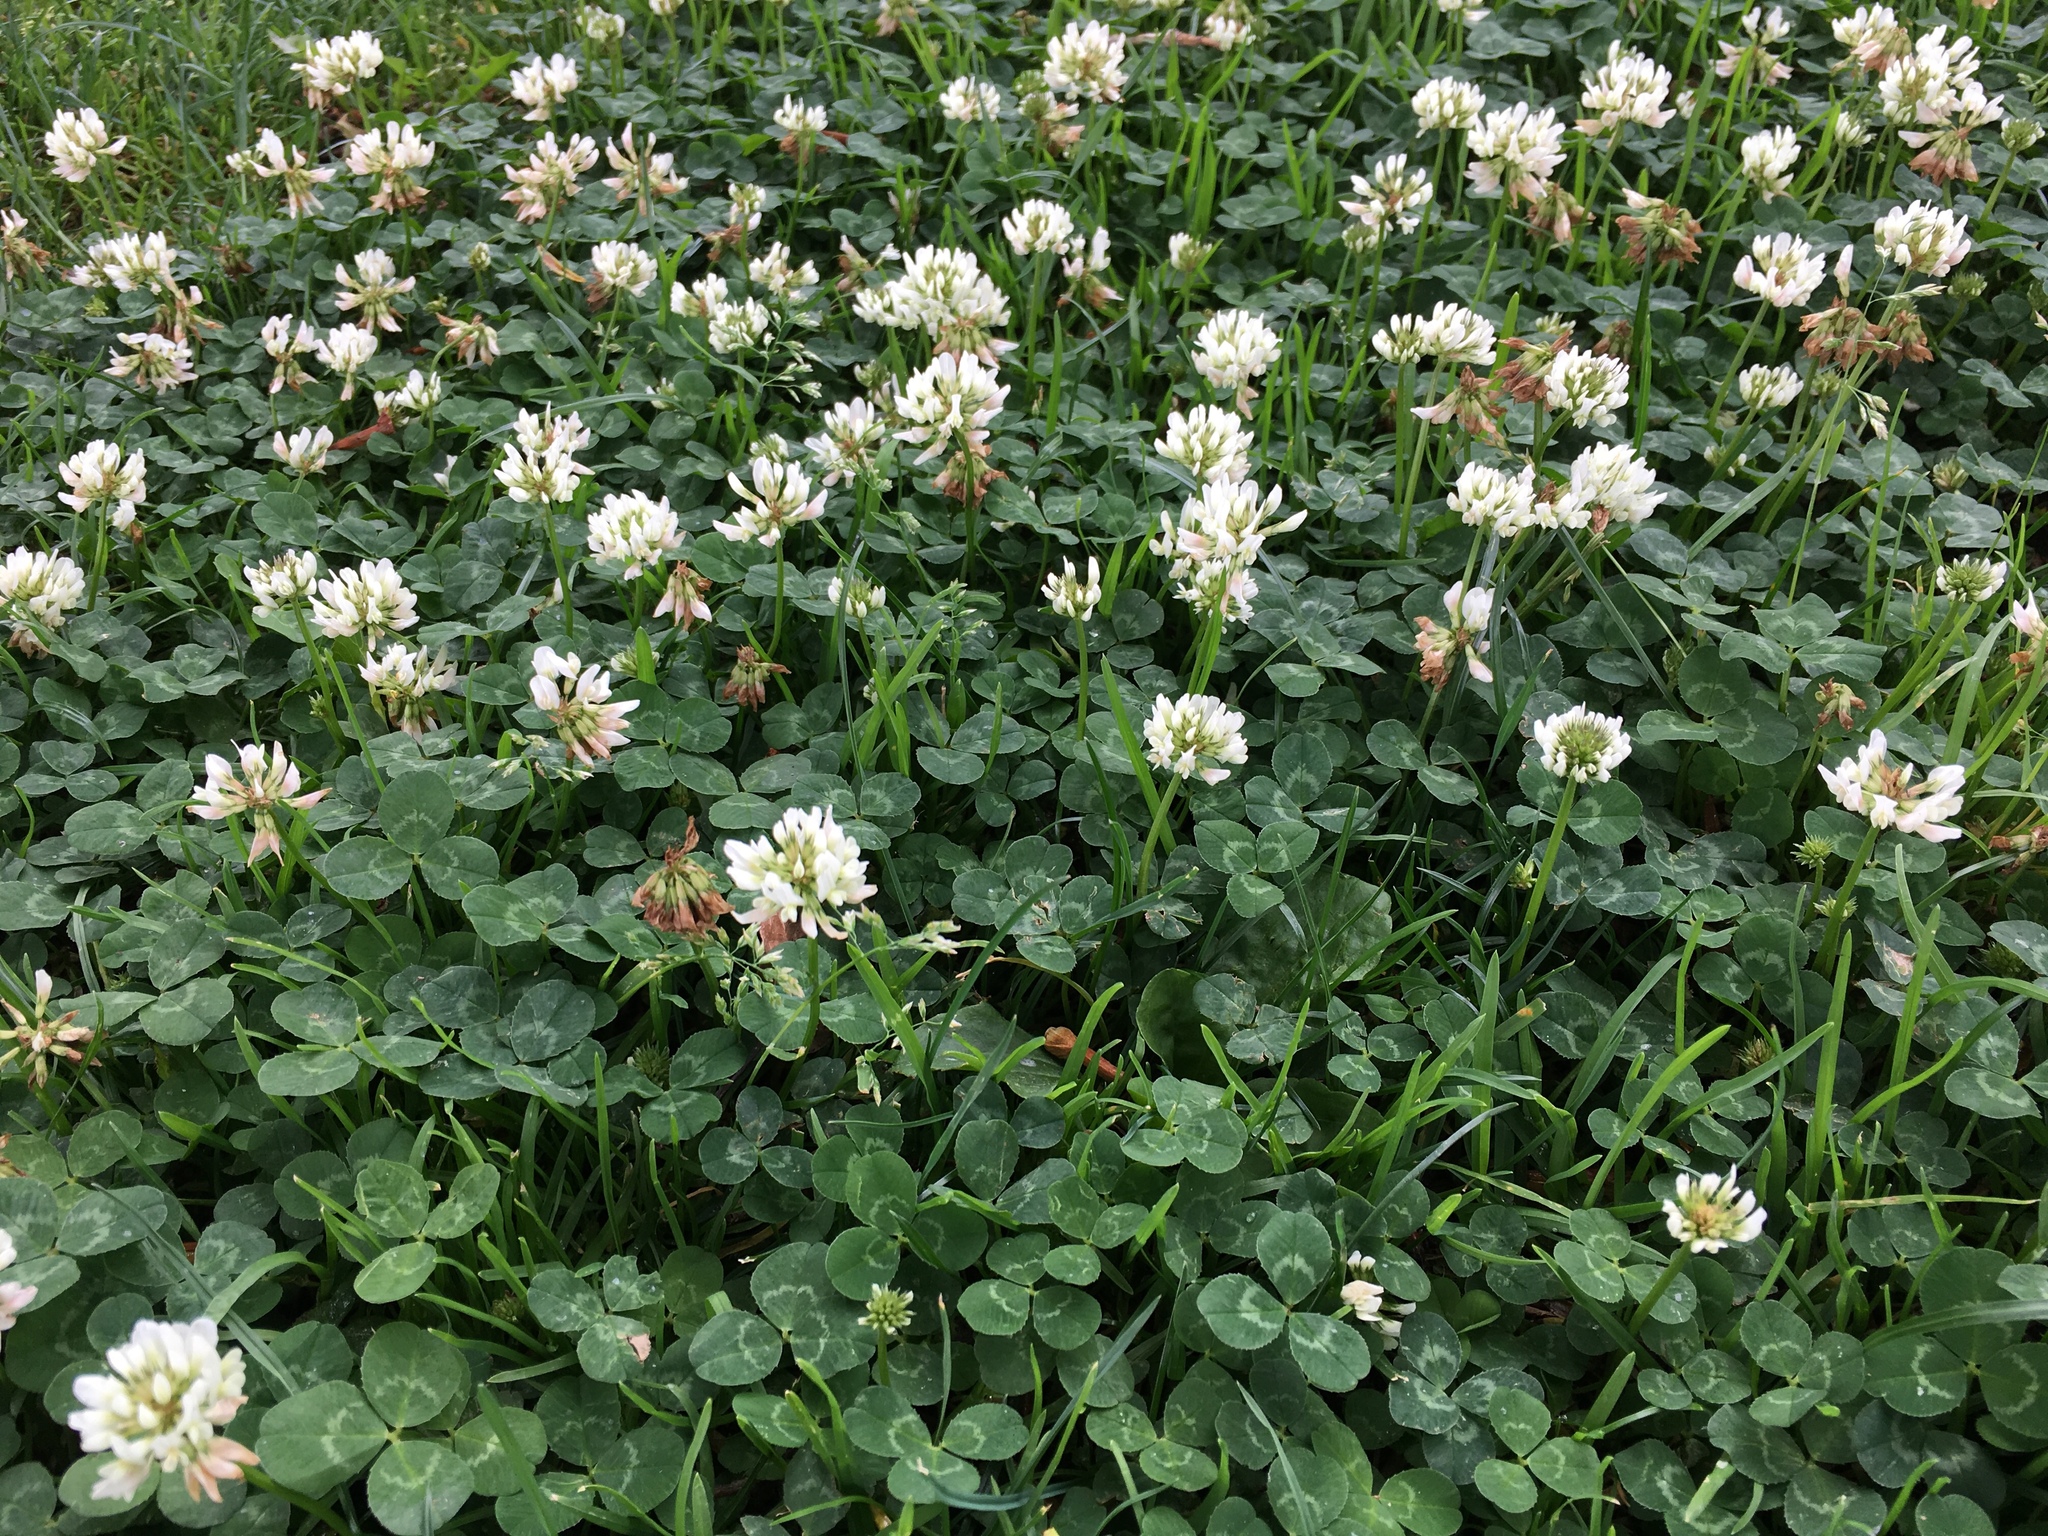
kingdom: Plantae
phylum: Tracheophyta
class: Magnoliopsida
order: Fabales
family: Fabaceae
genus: Trifolium
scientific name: Trifolium repens
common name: White clover
